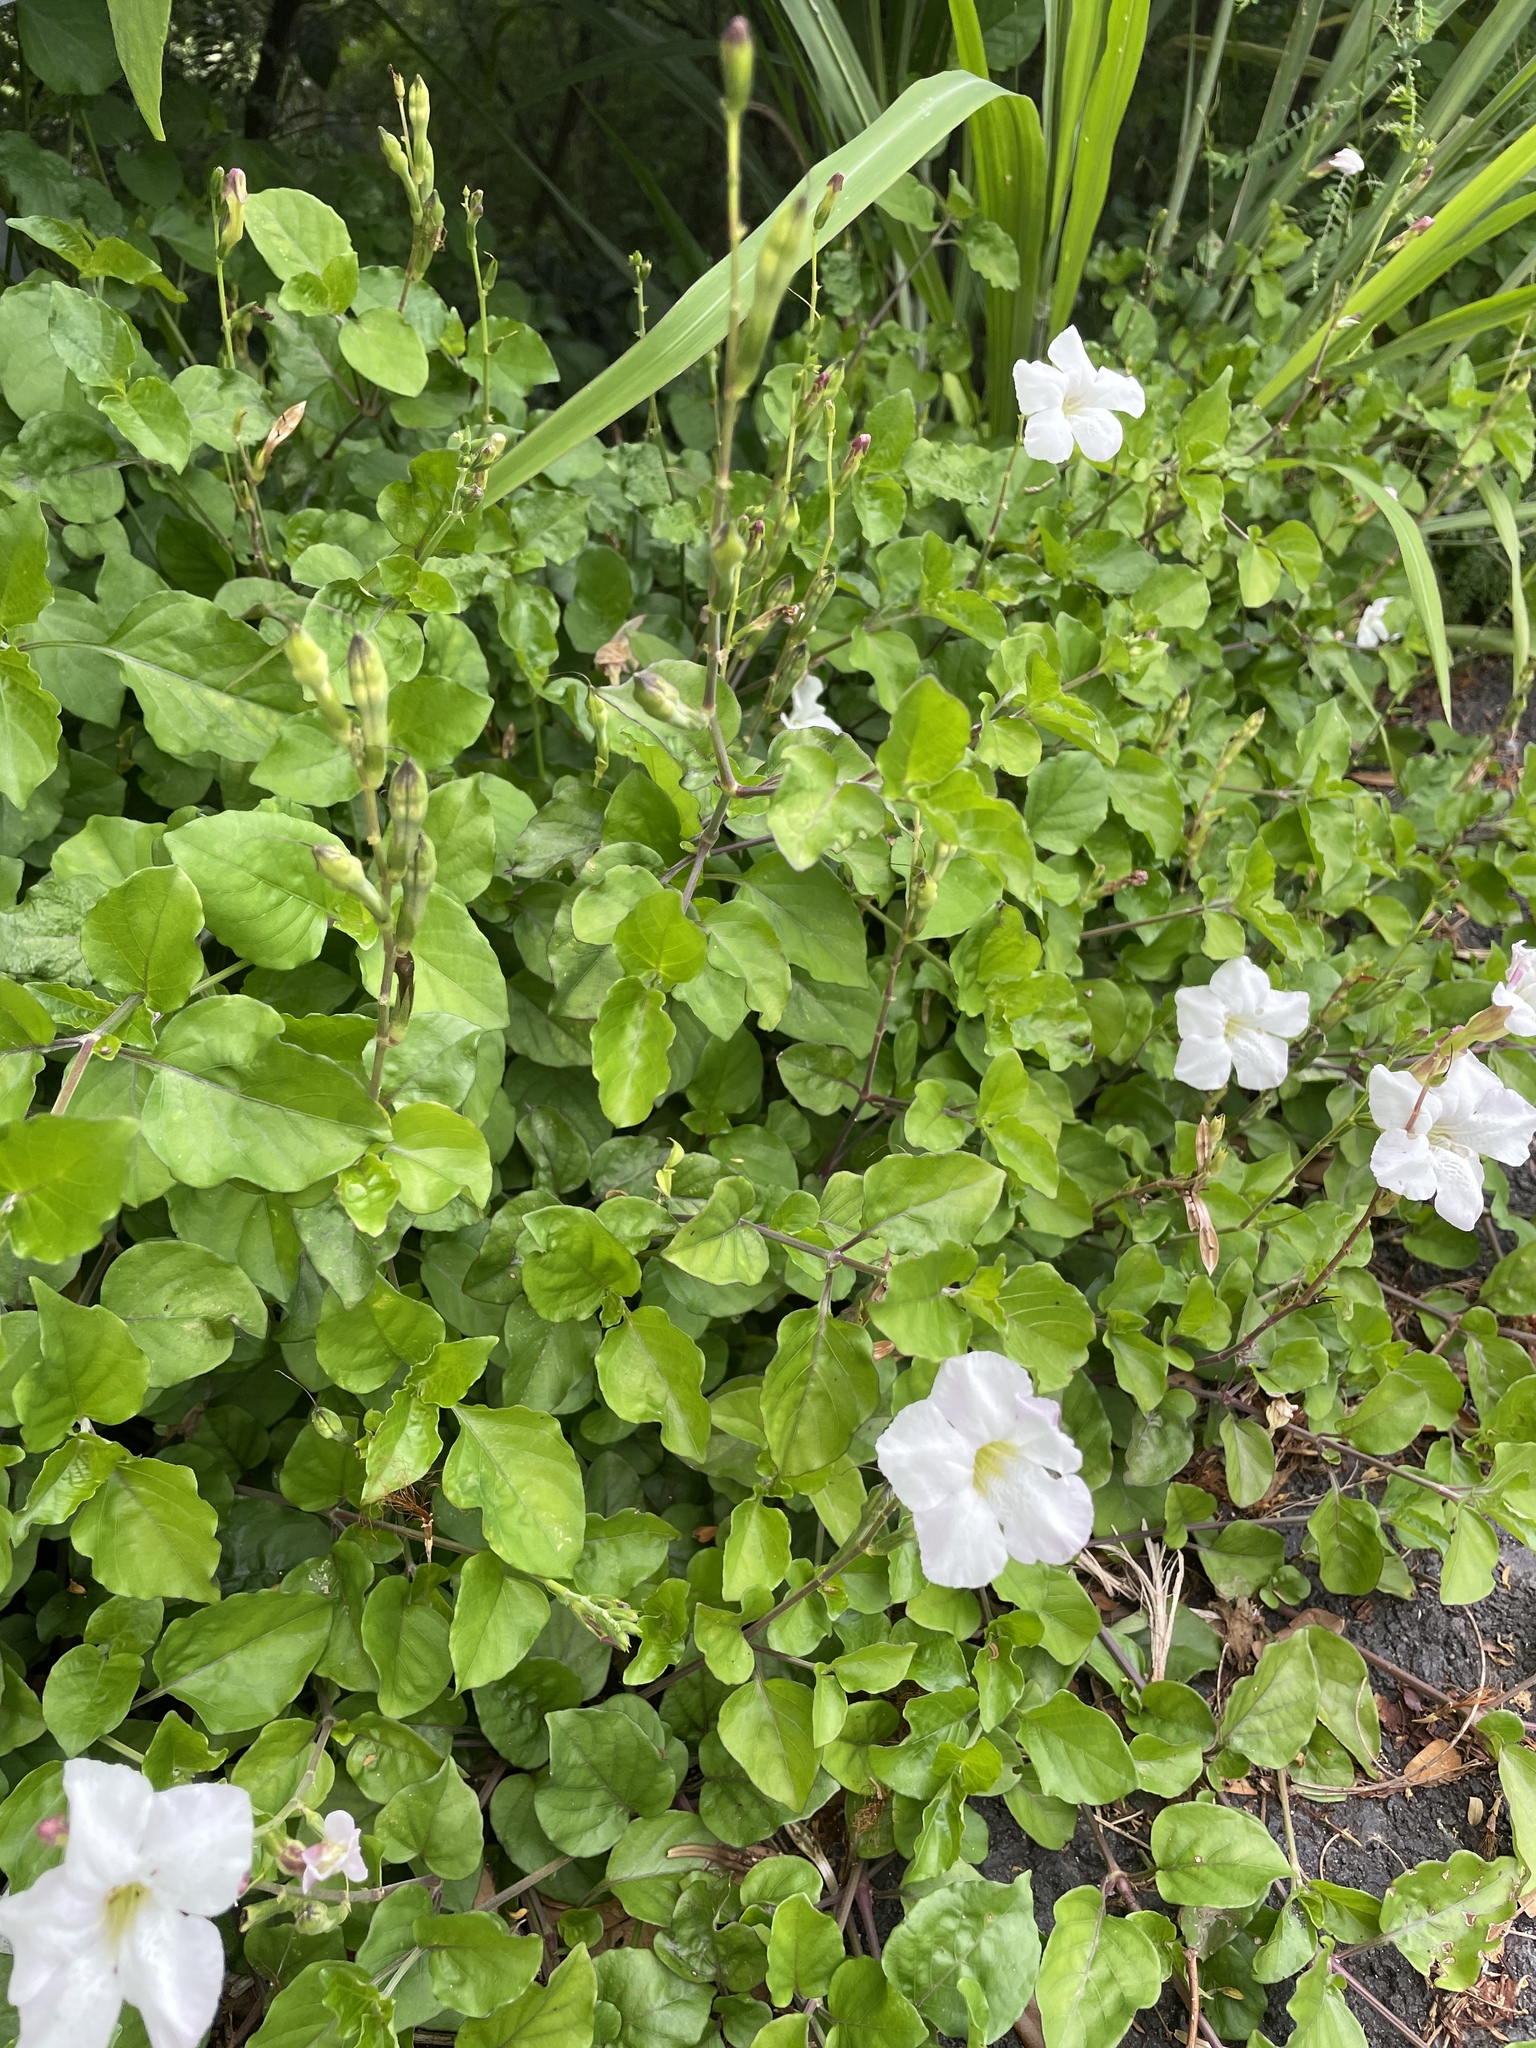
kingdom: Plantae
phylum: Tracheophyta
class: Magnoliopsida
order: Lamiales
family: Acanthaceae
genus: Asystasia
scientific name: Asystasia gangetica
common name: Chinese violet
